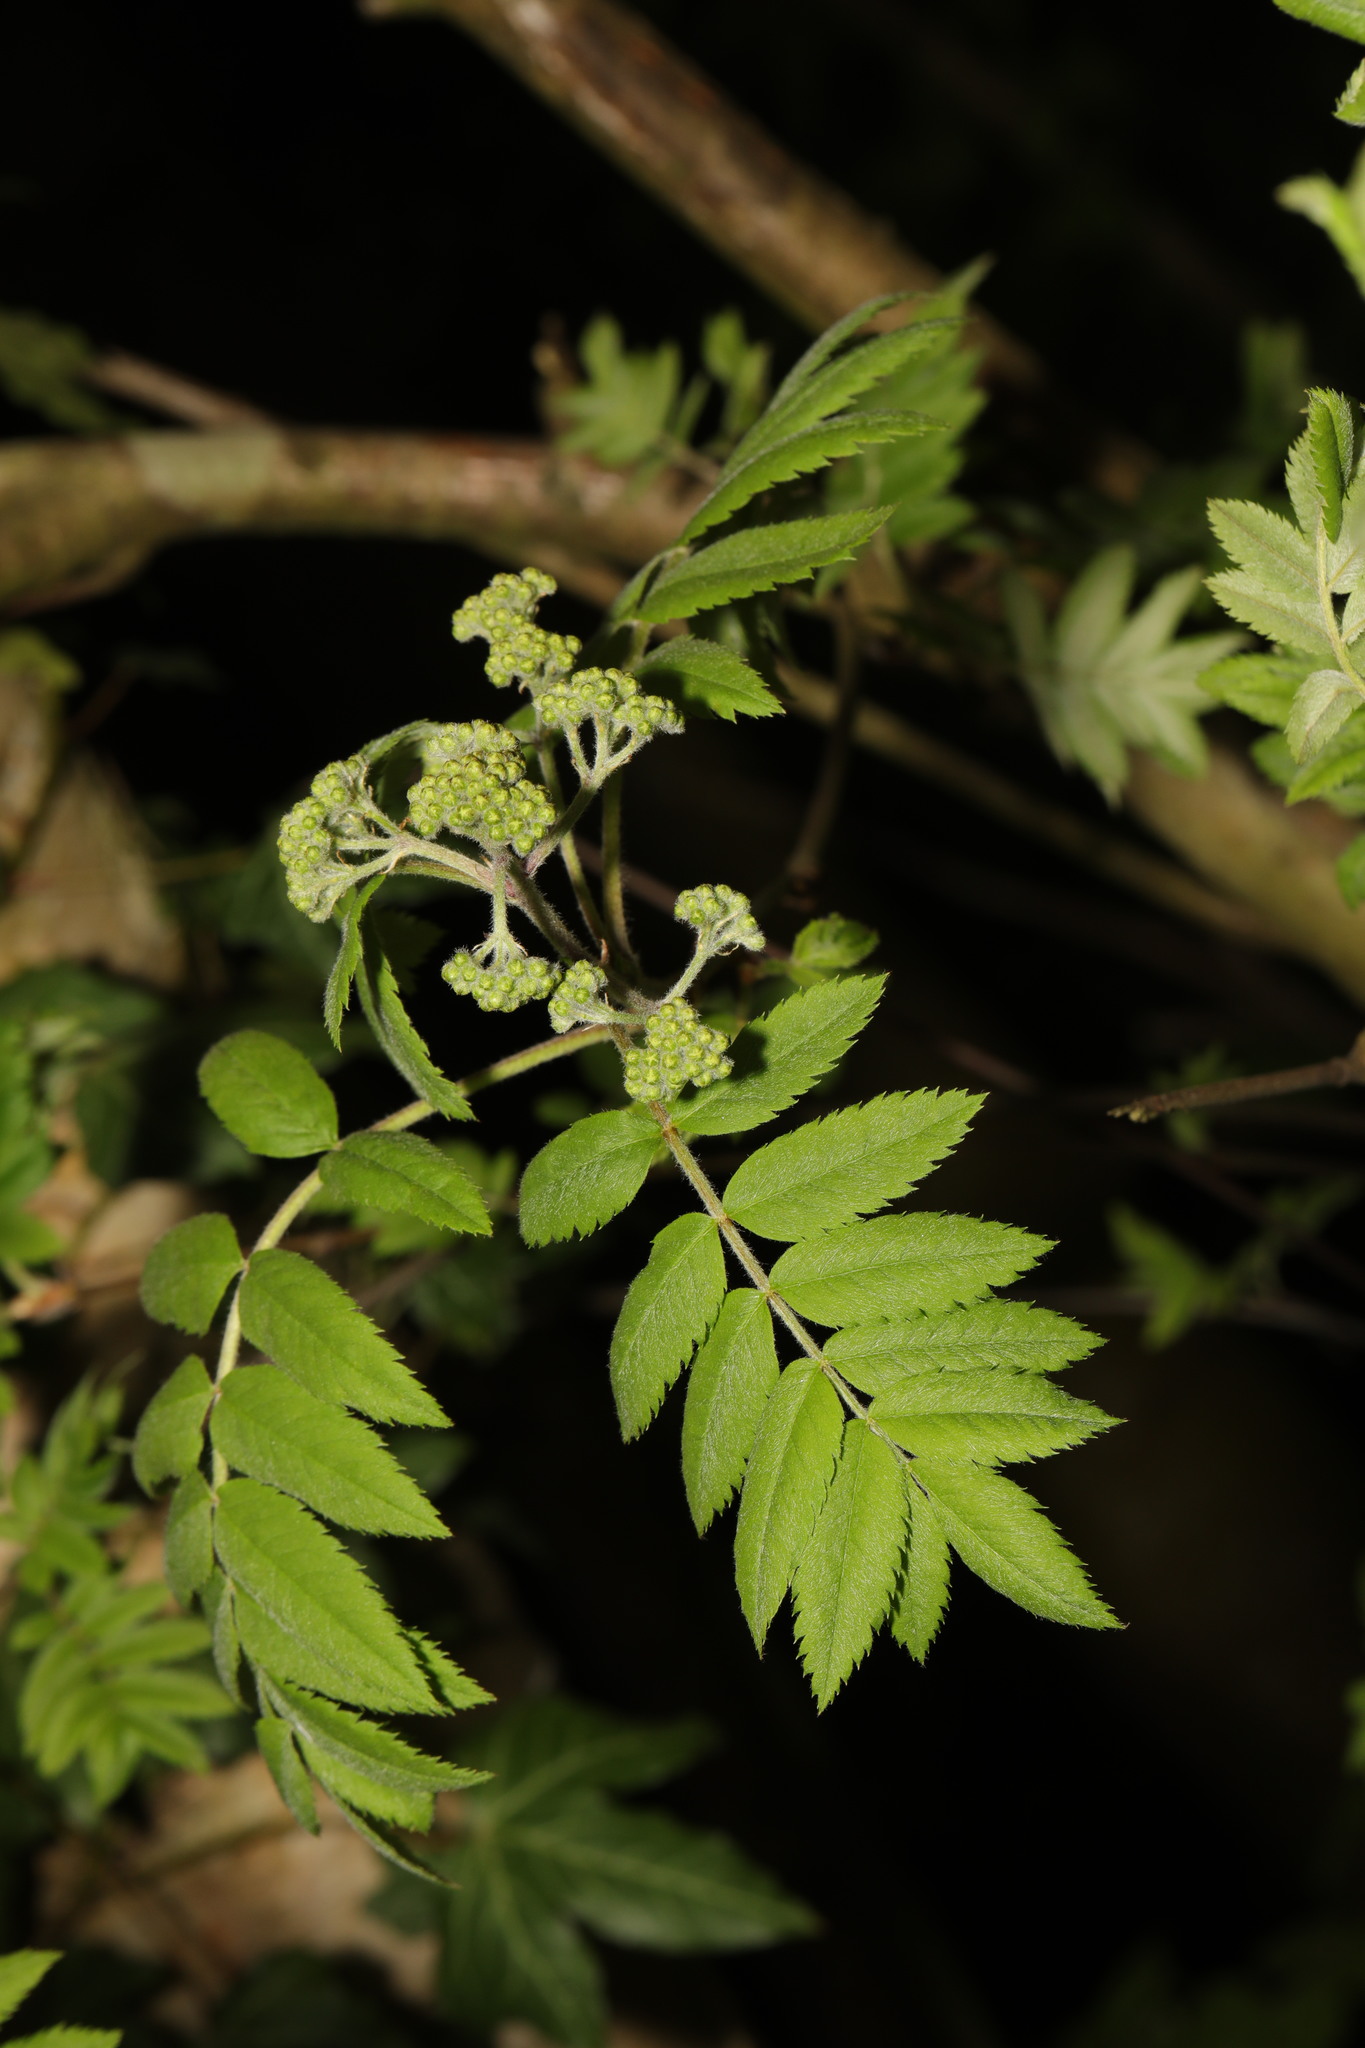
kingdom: Plantae
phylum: Tracheophyta
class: Magnoliopsida
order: Rosales
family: Rosaceae
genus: Sorbus
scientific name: Sorbus aucuparia
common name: Rowan
